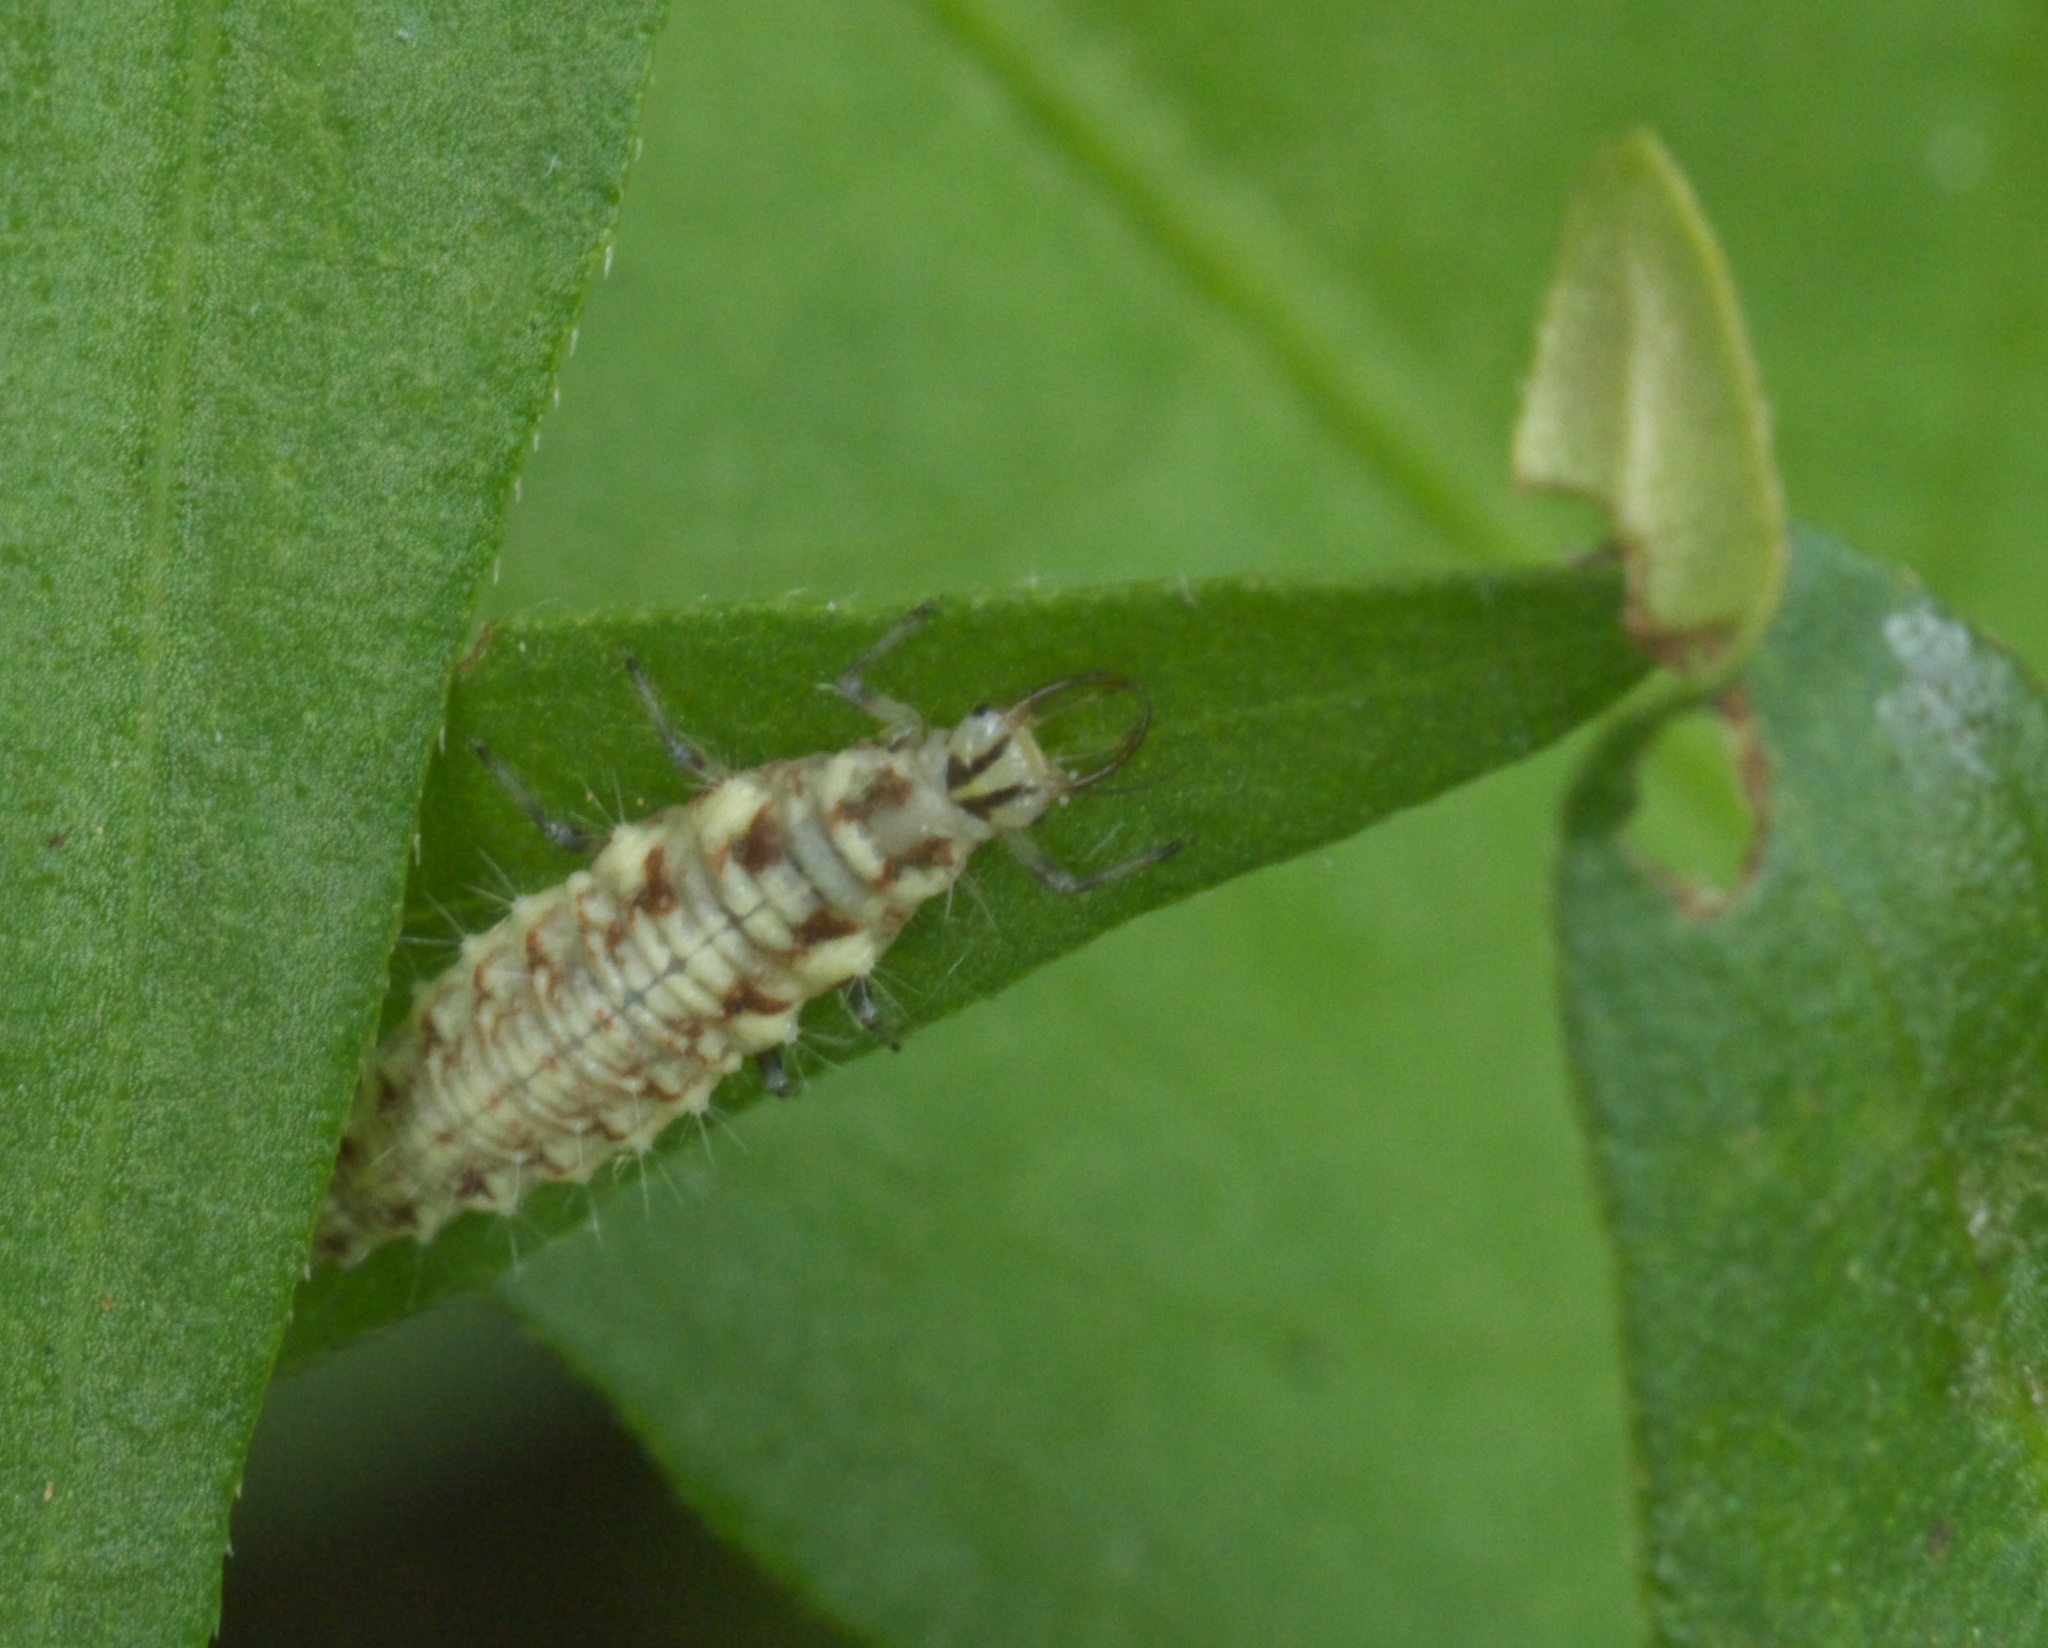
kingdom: Animalia
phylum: Arthropoda
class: Insecta
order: Neuroptera
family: Chrysopidae
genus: Chrysoperla
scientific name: Chrysoperla
